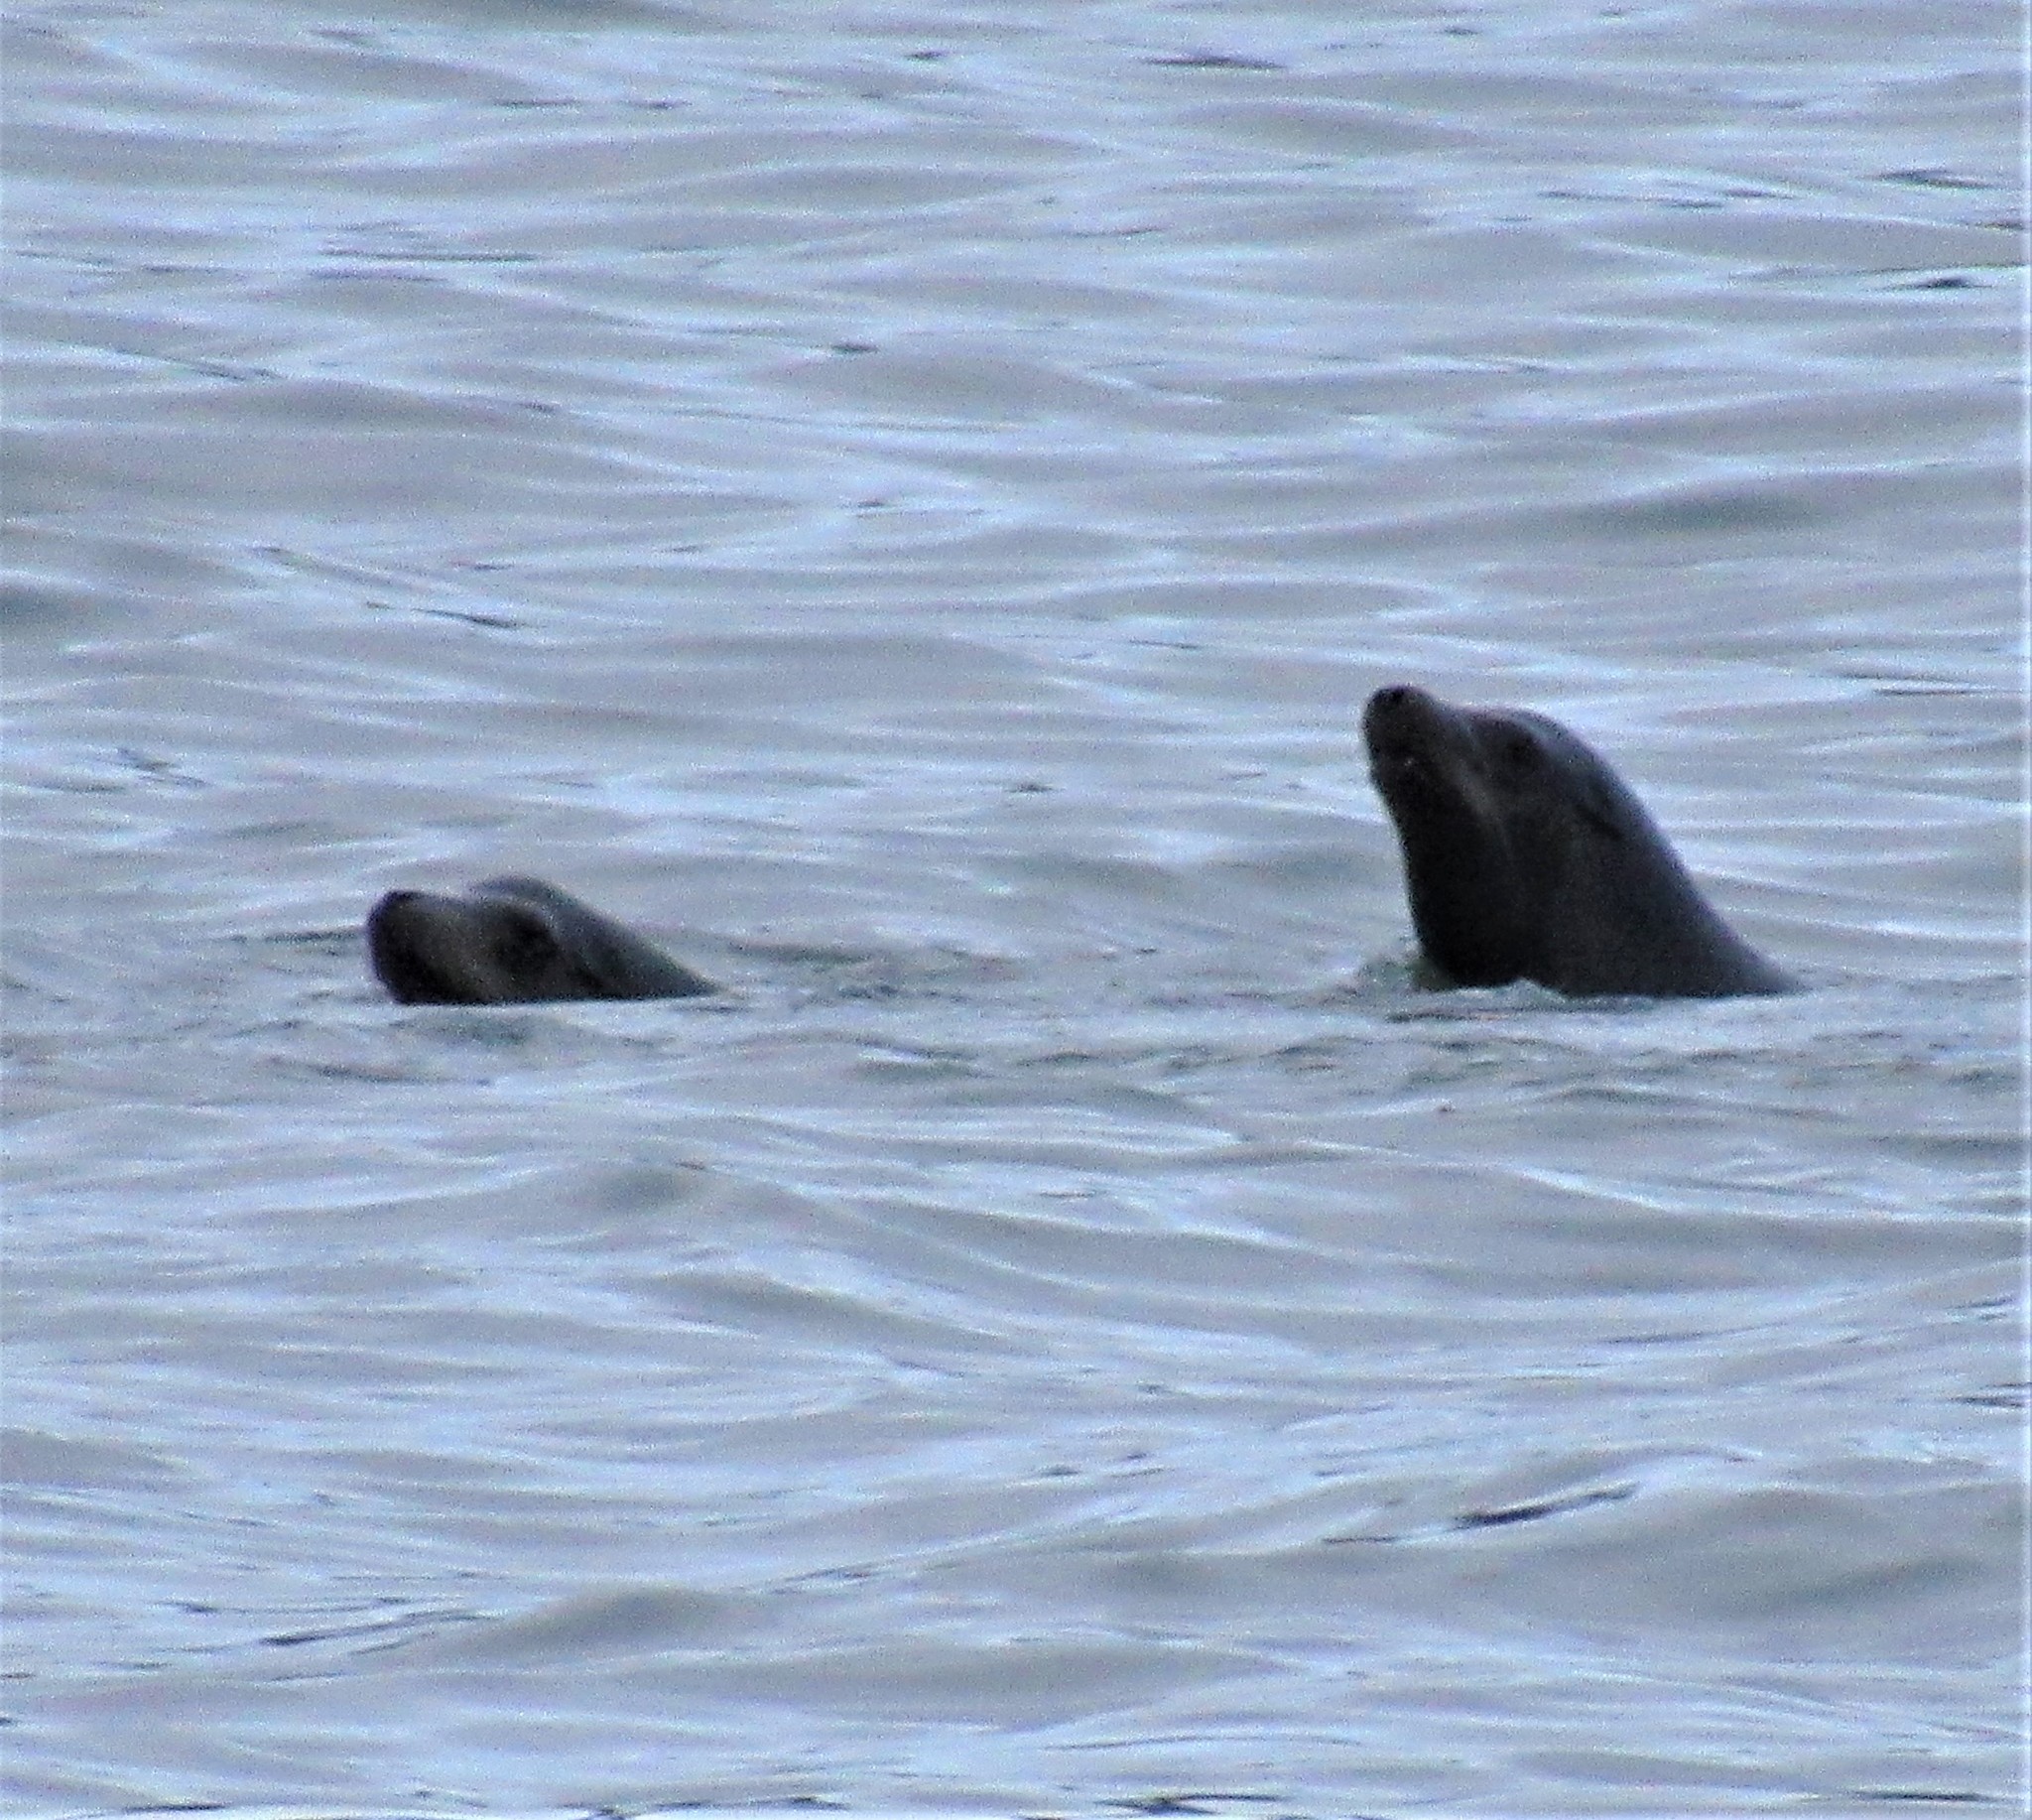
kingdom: Animalia
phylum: Chordata
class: Mammalia
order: Carnivora
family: Otariidae
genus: Zalophus
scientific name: Zalophus californianus
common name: California sea lion
